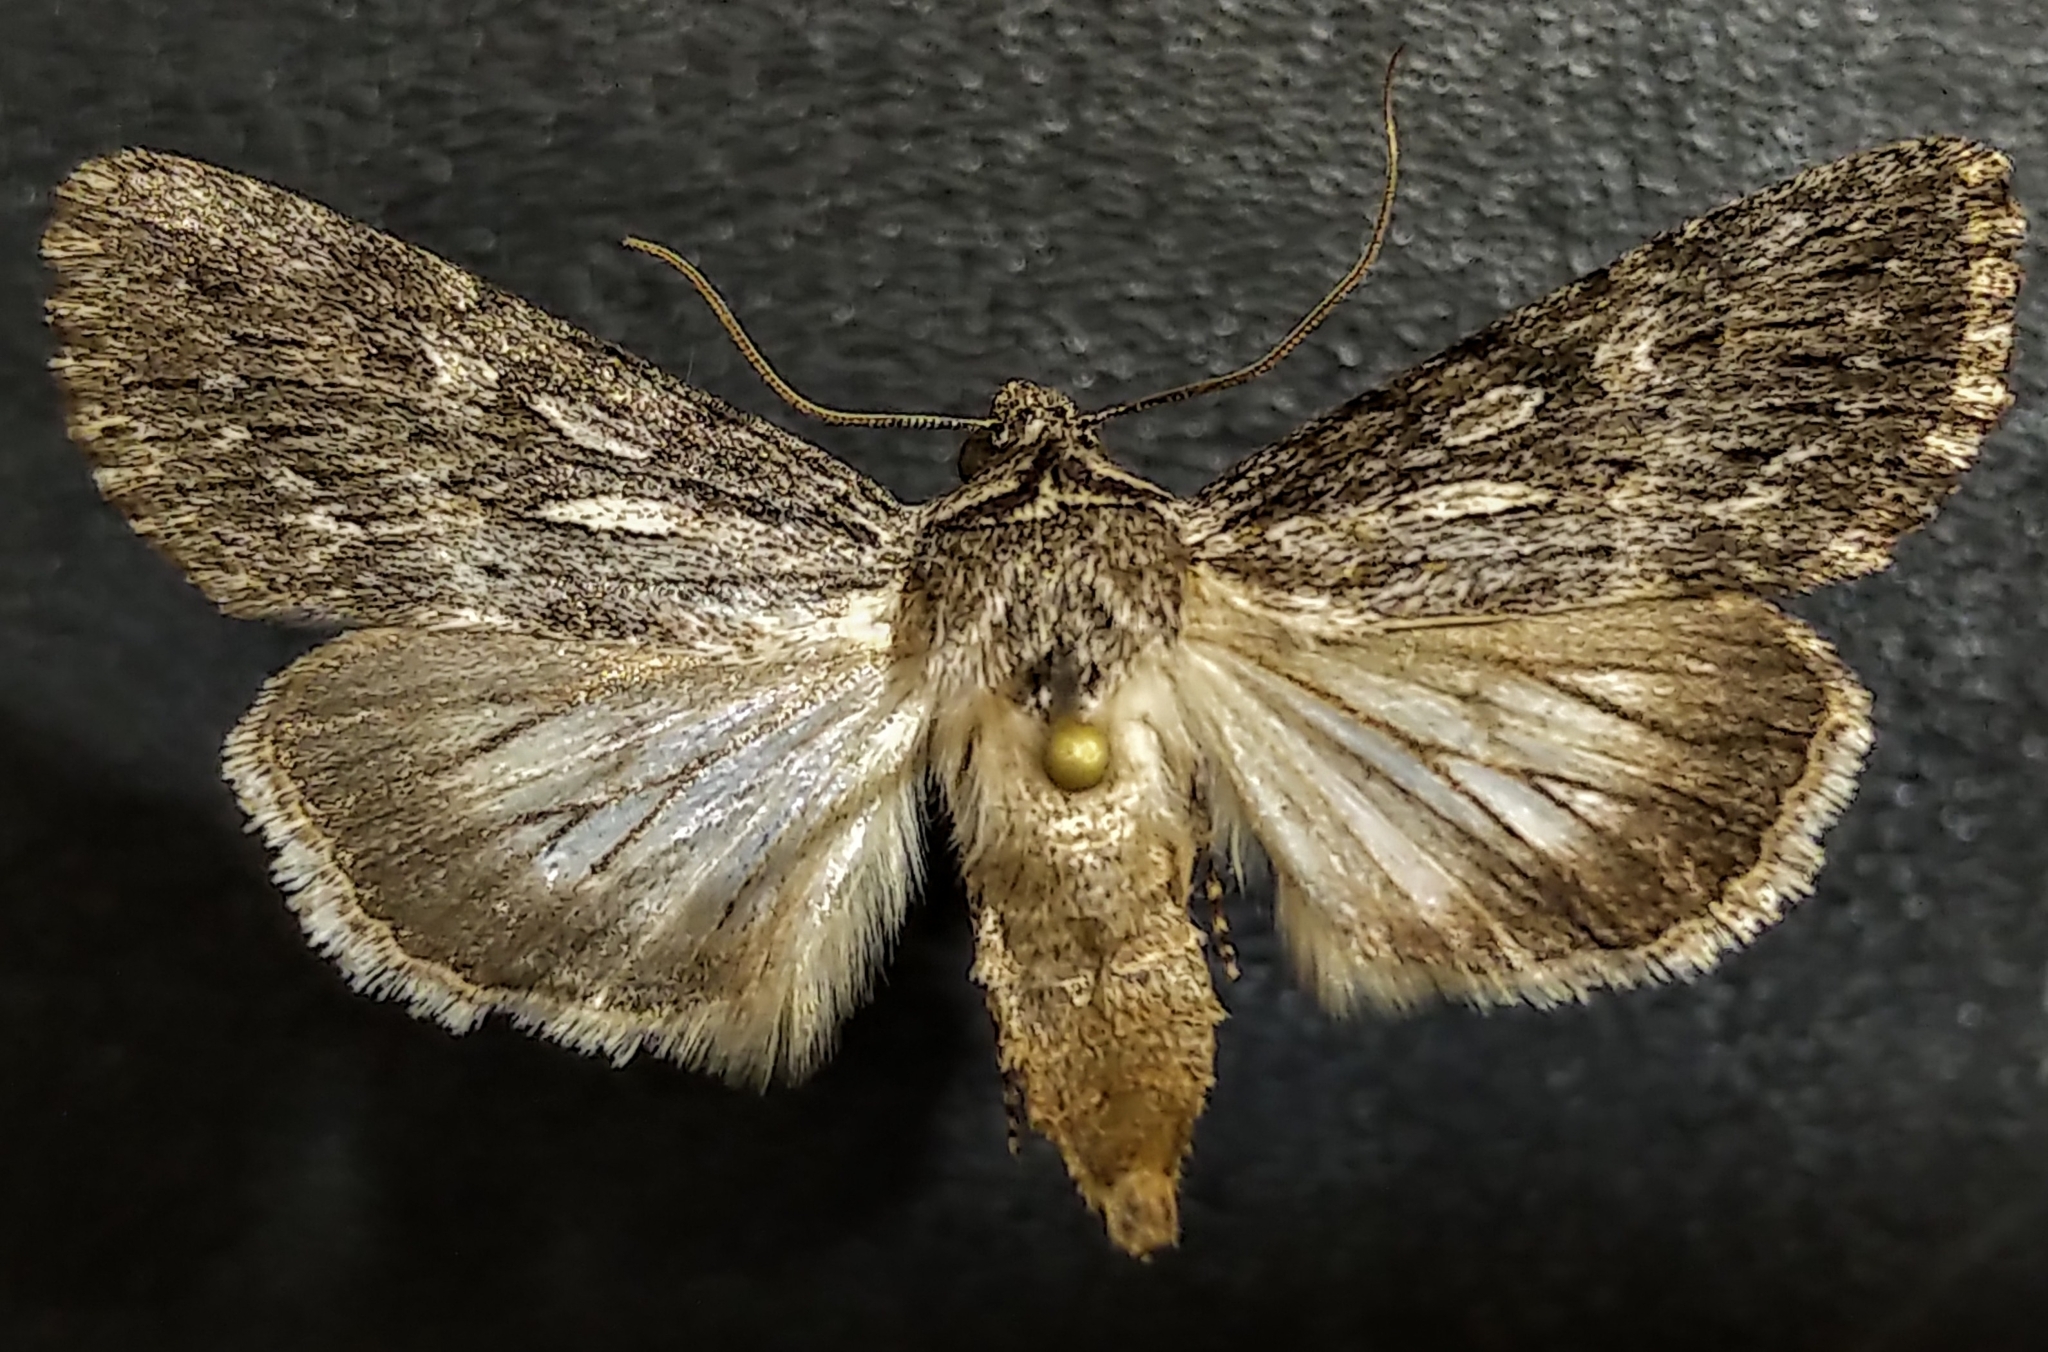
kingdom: Animalia
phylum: Arthropoda
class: Insecta
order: Lepidoptera
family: Noctuidae
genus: Sympistis
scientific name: Sympistis riparia
